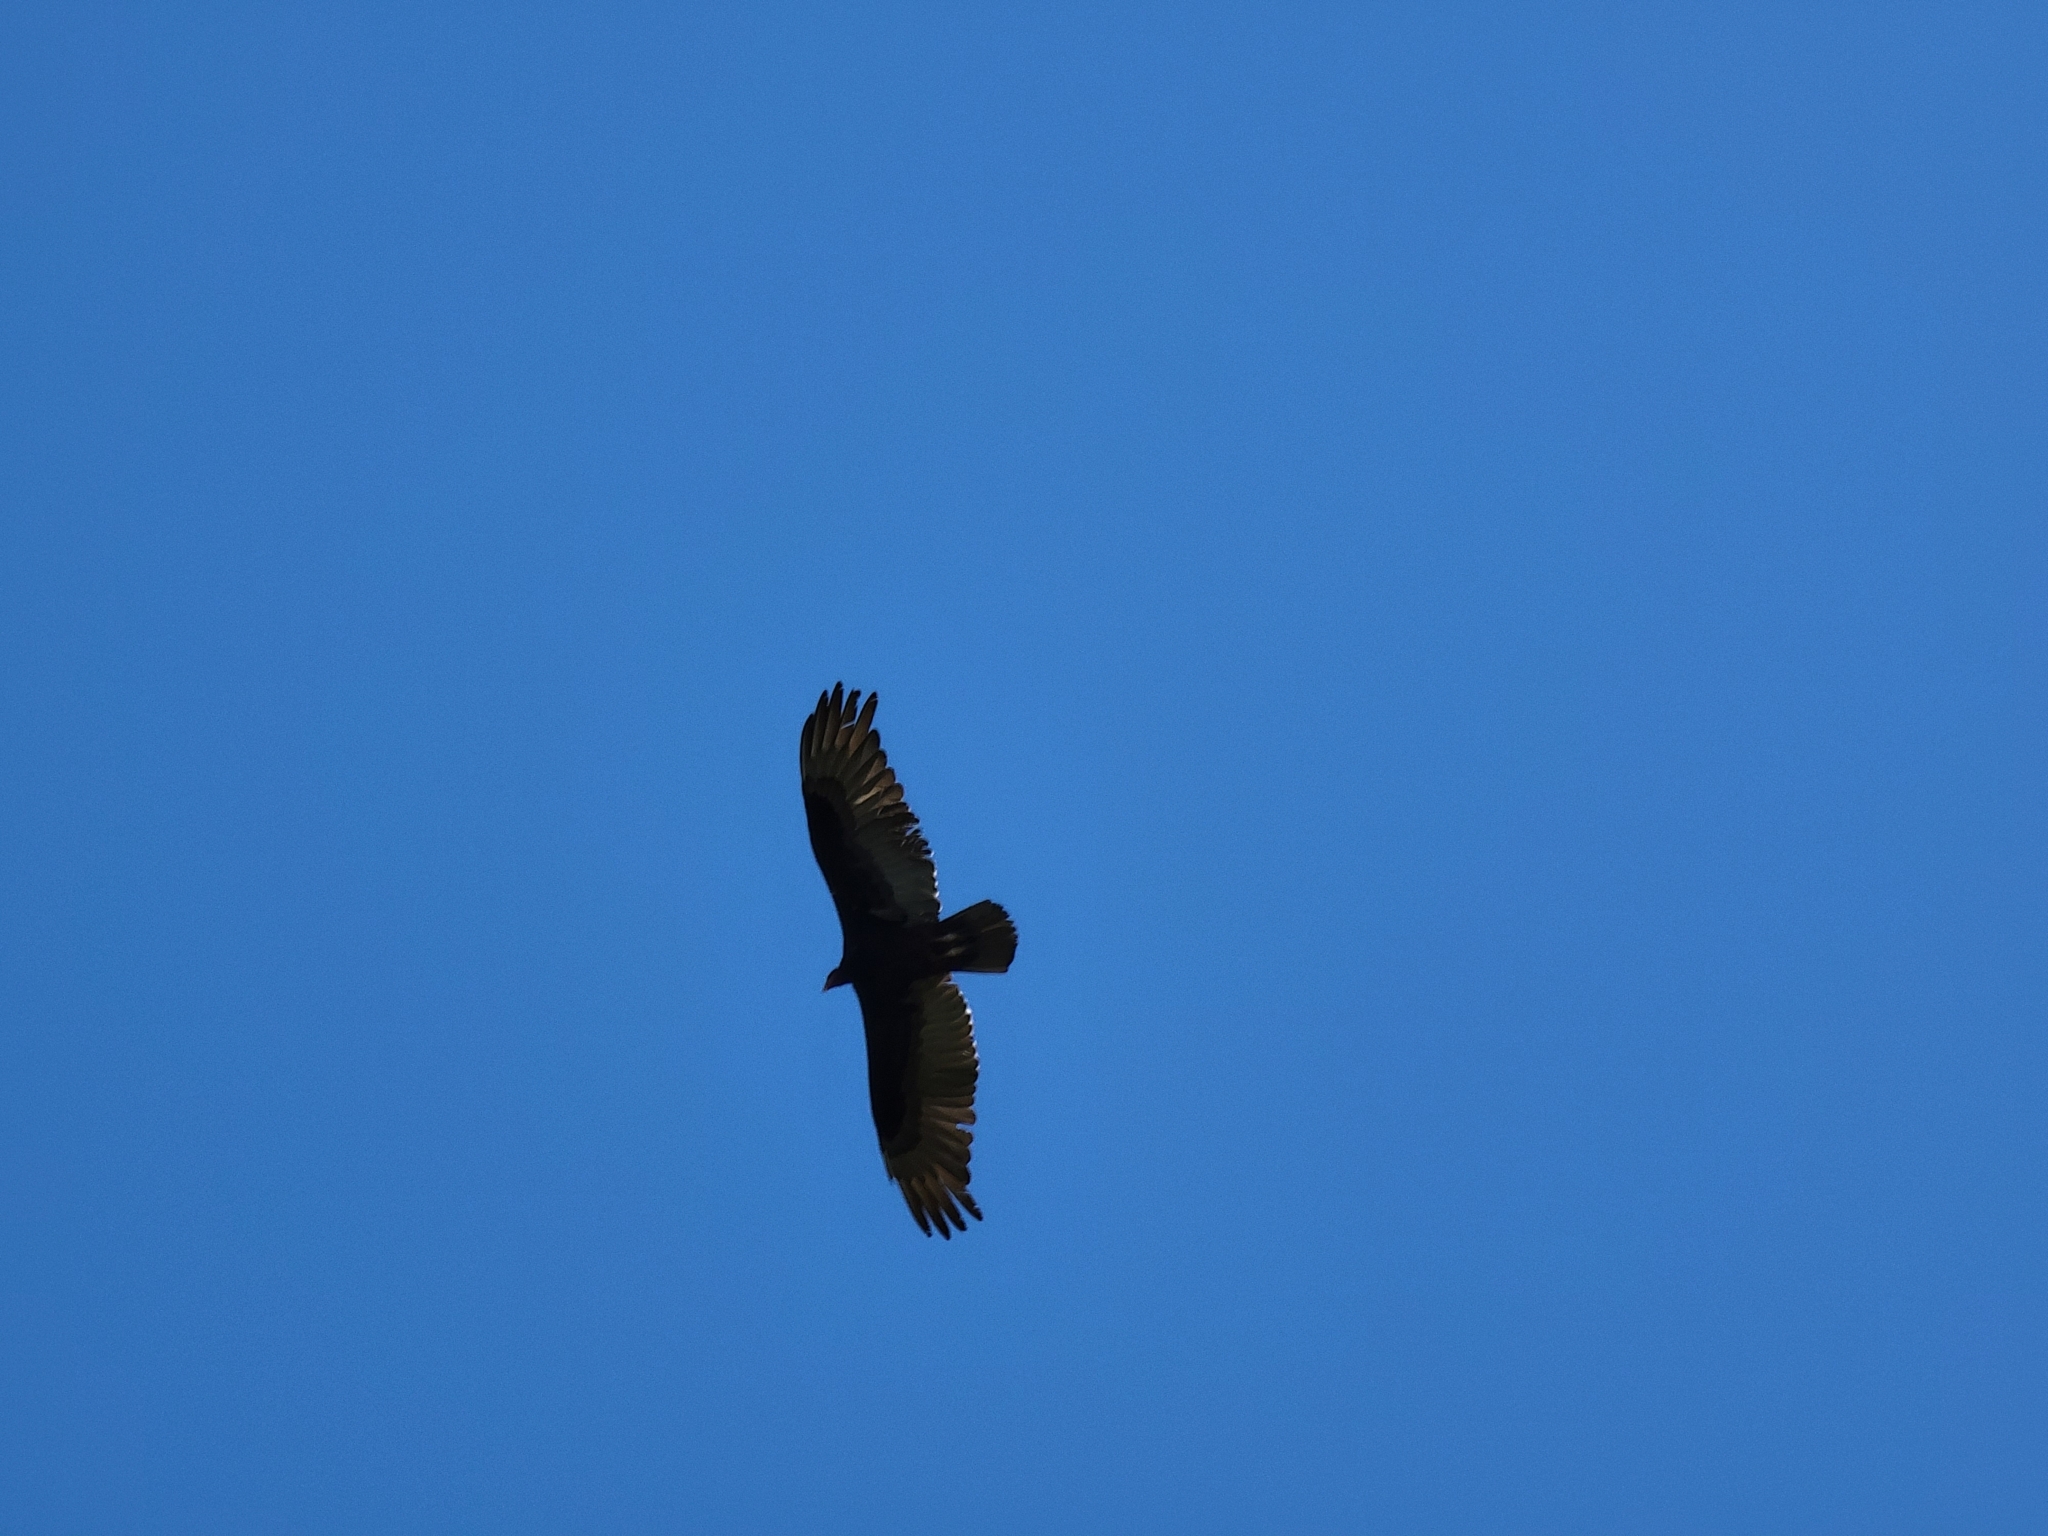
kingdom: Animalia
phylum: Chordata
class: Aves
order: Accipitriformes
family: Cathartidae
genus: Cathartes
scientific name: Cathartes aura
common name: Turkey vulture
